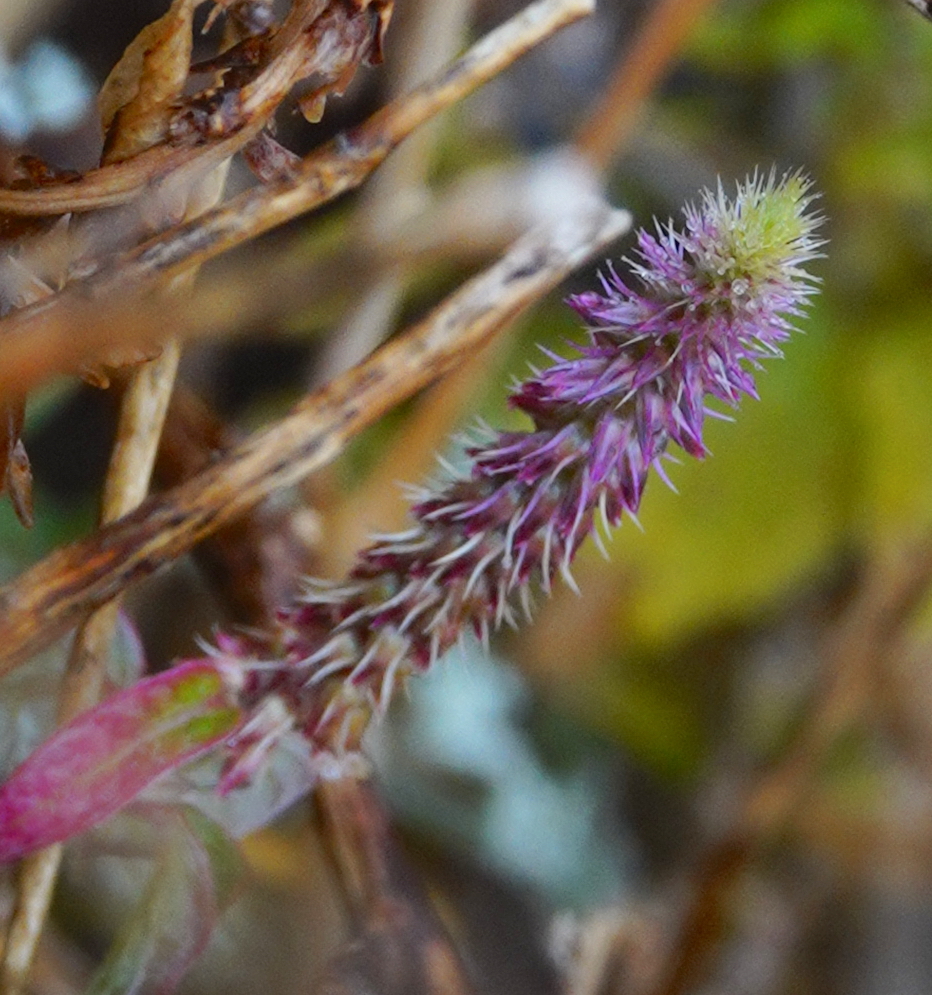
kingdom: Plantae
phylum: Tracheophyta
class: Magnoliopsida
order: Caryophyllales
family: Amaranthaceae
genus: Achyranthes
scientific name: Achyranthes aspera
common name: Devil's horsewhip
